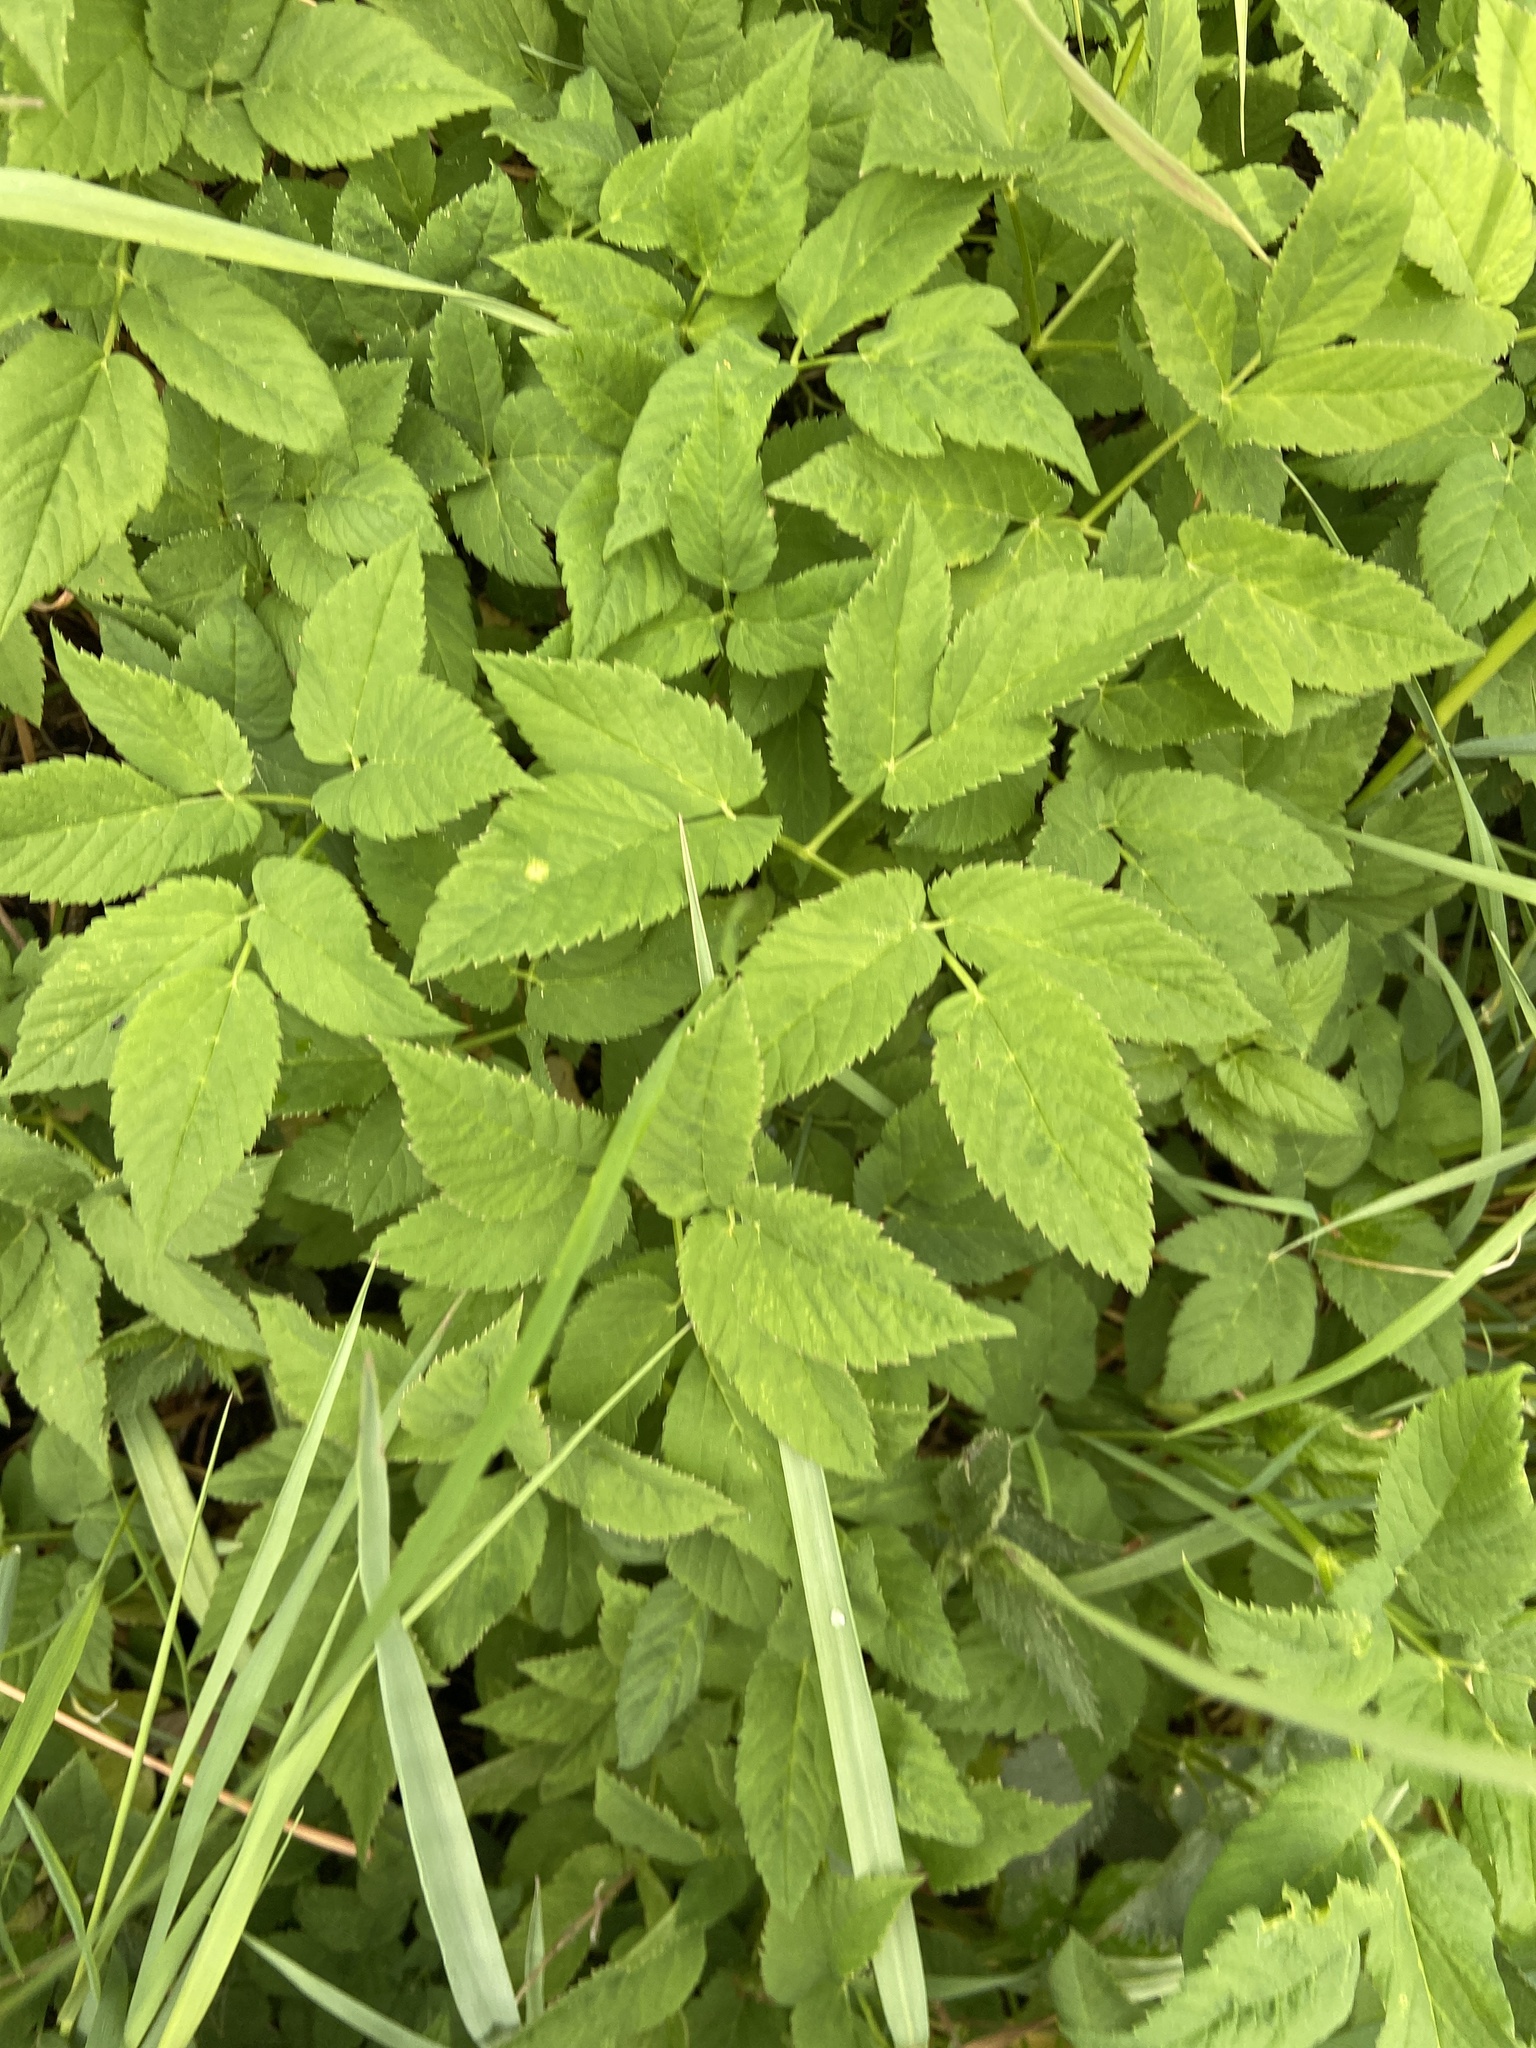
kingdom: Plantae
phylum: Tracheophyta
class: Magnoliopsida
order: Apiales
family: Apiaceae
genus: Aegopodium
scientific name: Aegopodium podagraria
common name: Ground-elder
